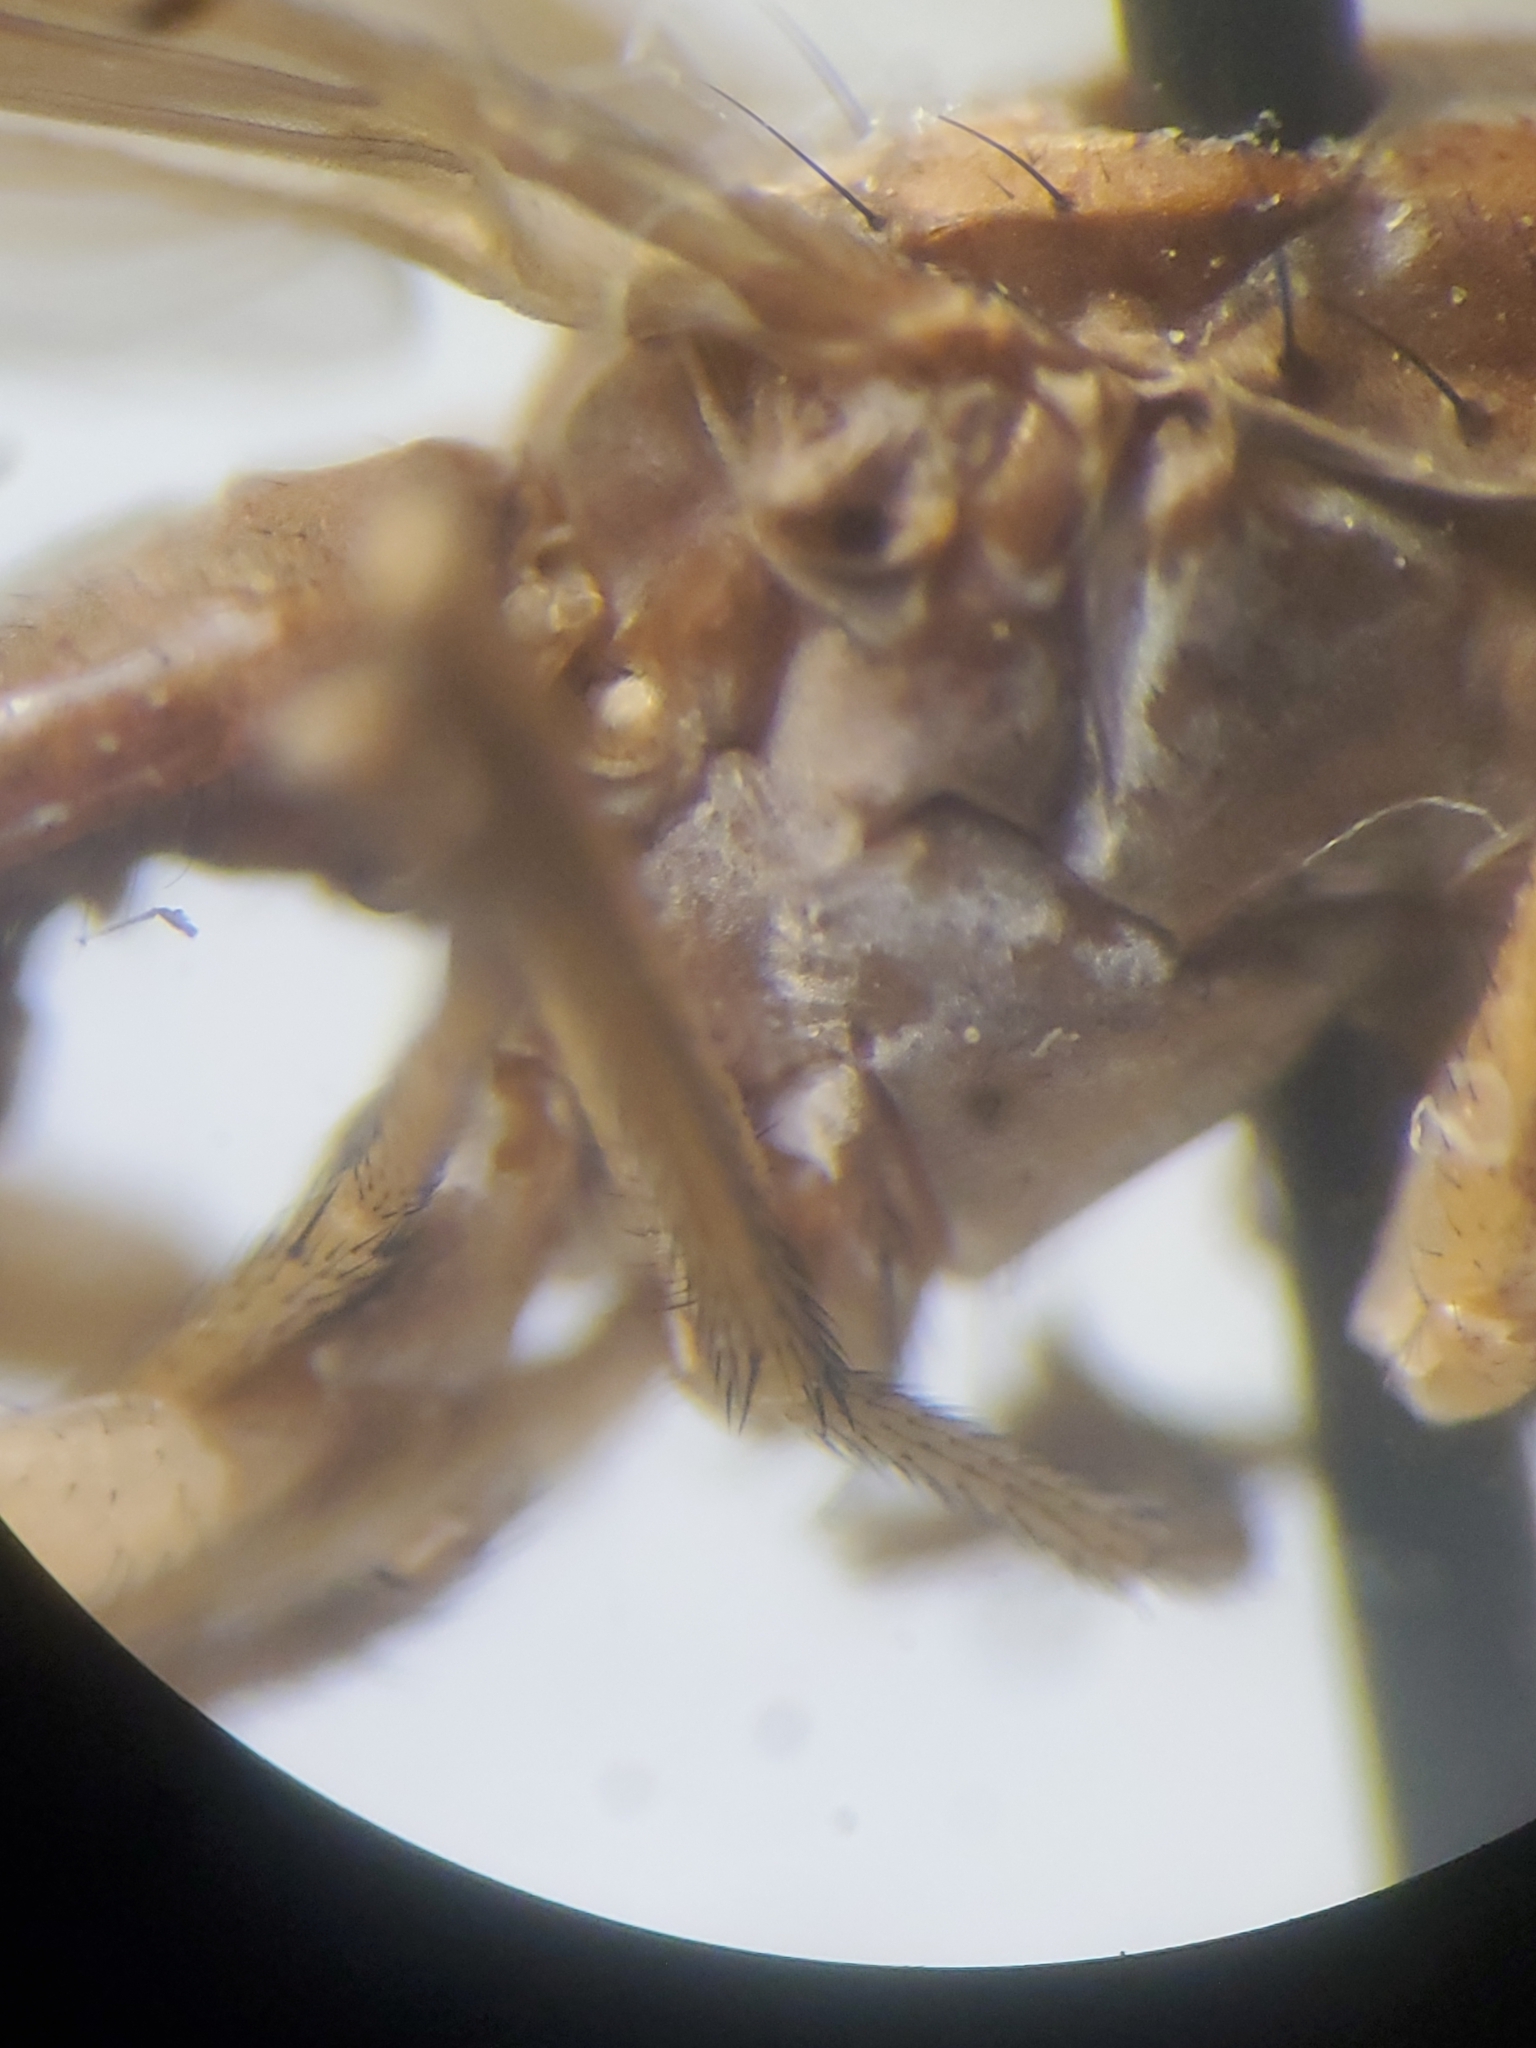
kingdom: Animalia
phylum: Arthropoda
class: Insecta
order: Diptera
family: Sciomyzidae
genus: Sepedon
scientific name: Sepedon gracilicornis
